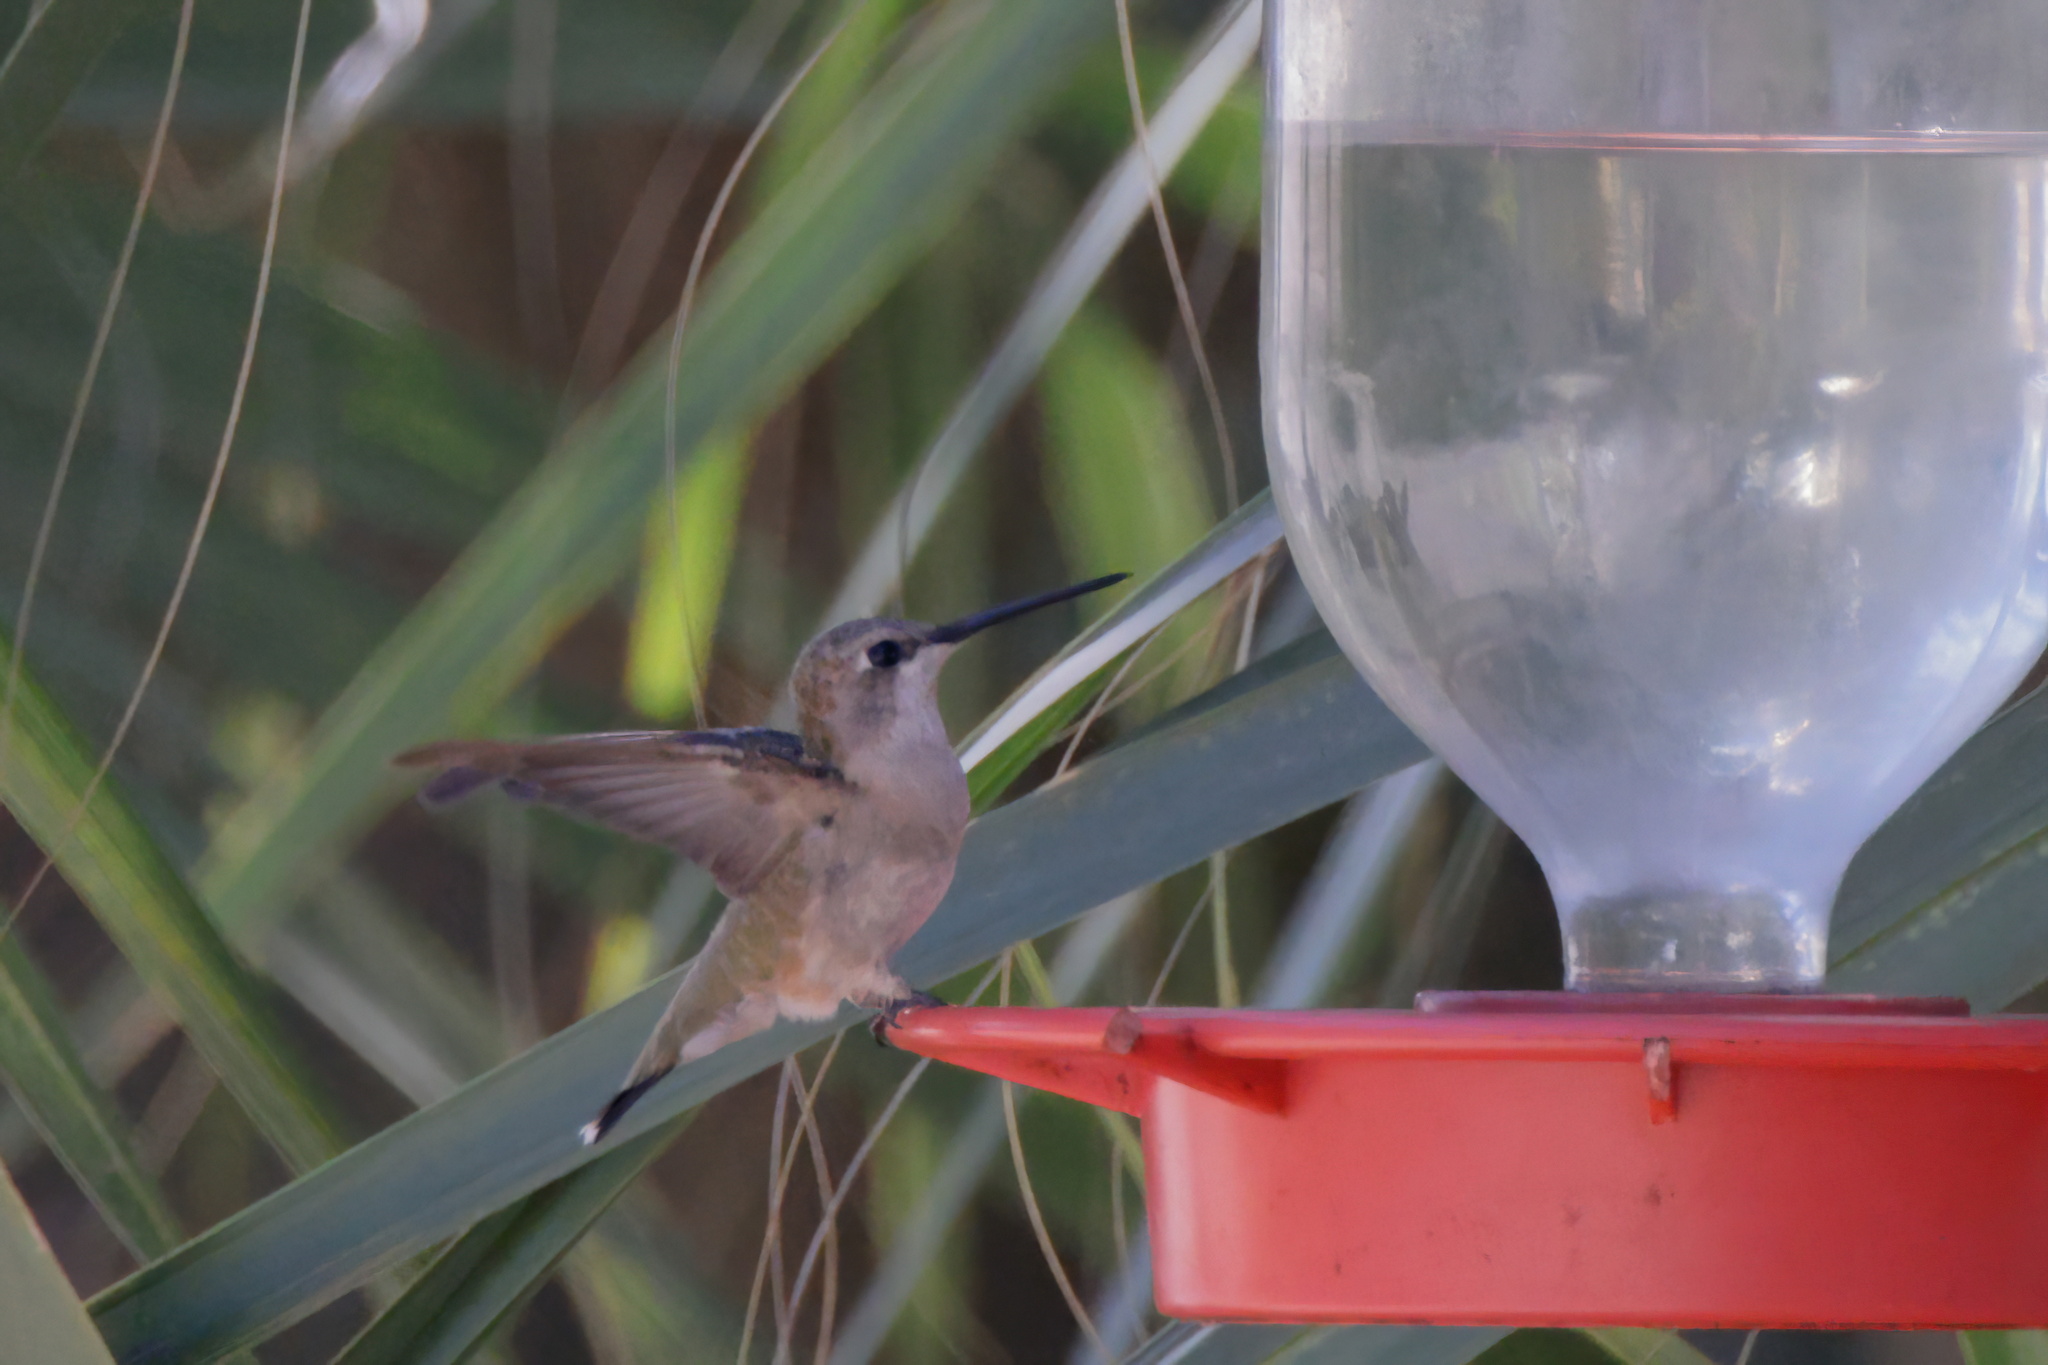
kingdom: Animalia
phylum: Chordata
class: Aves
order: Apodiformes
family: Trochilidae
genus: Archilochus
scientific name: Archilochus alexandri
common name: Black-chinned hummingbird
